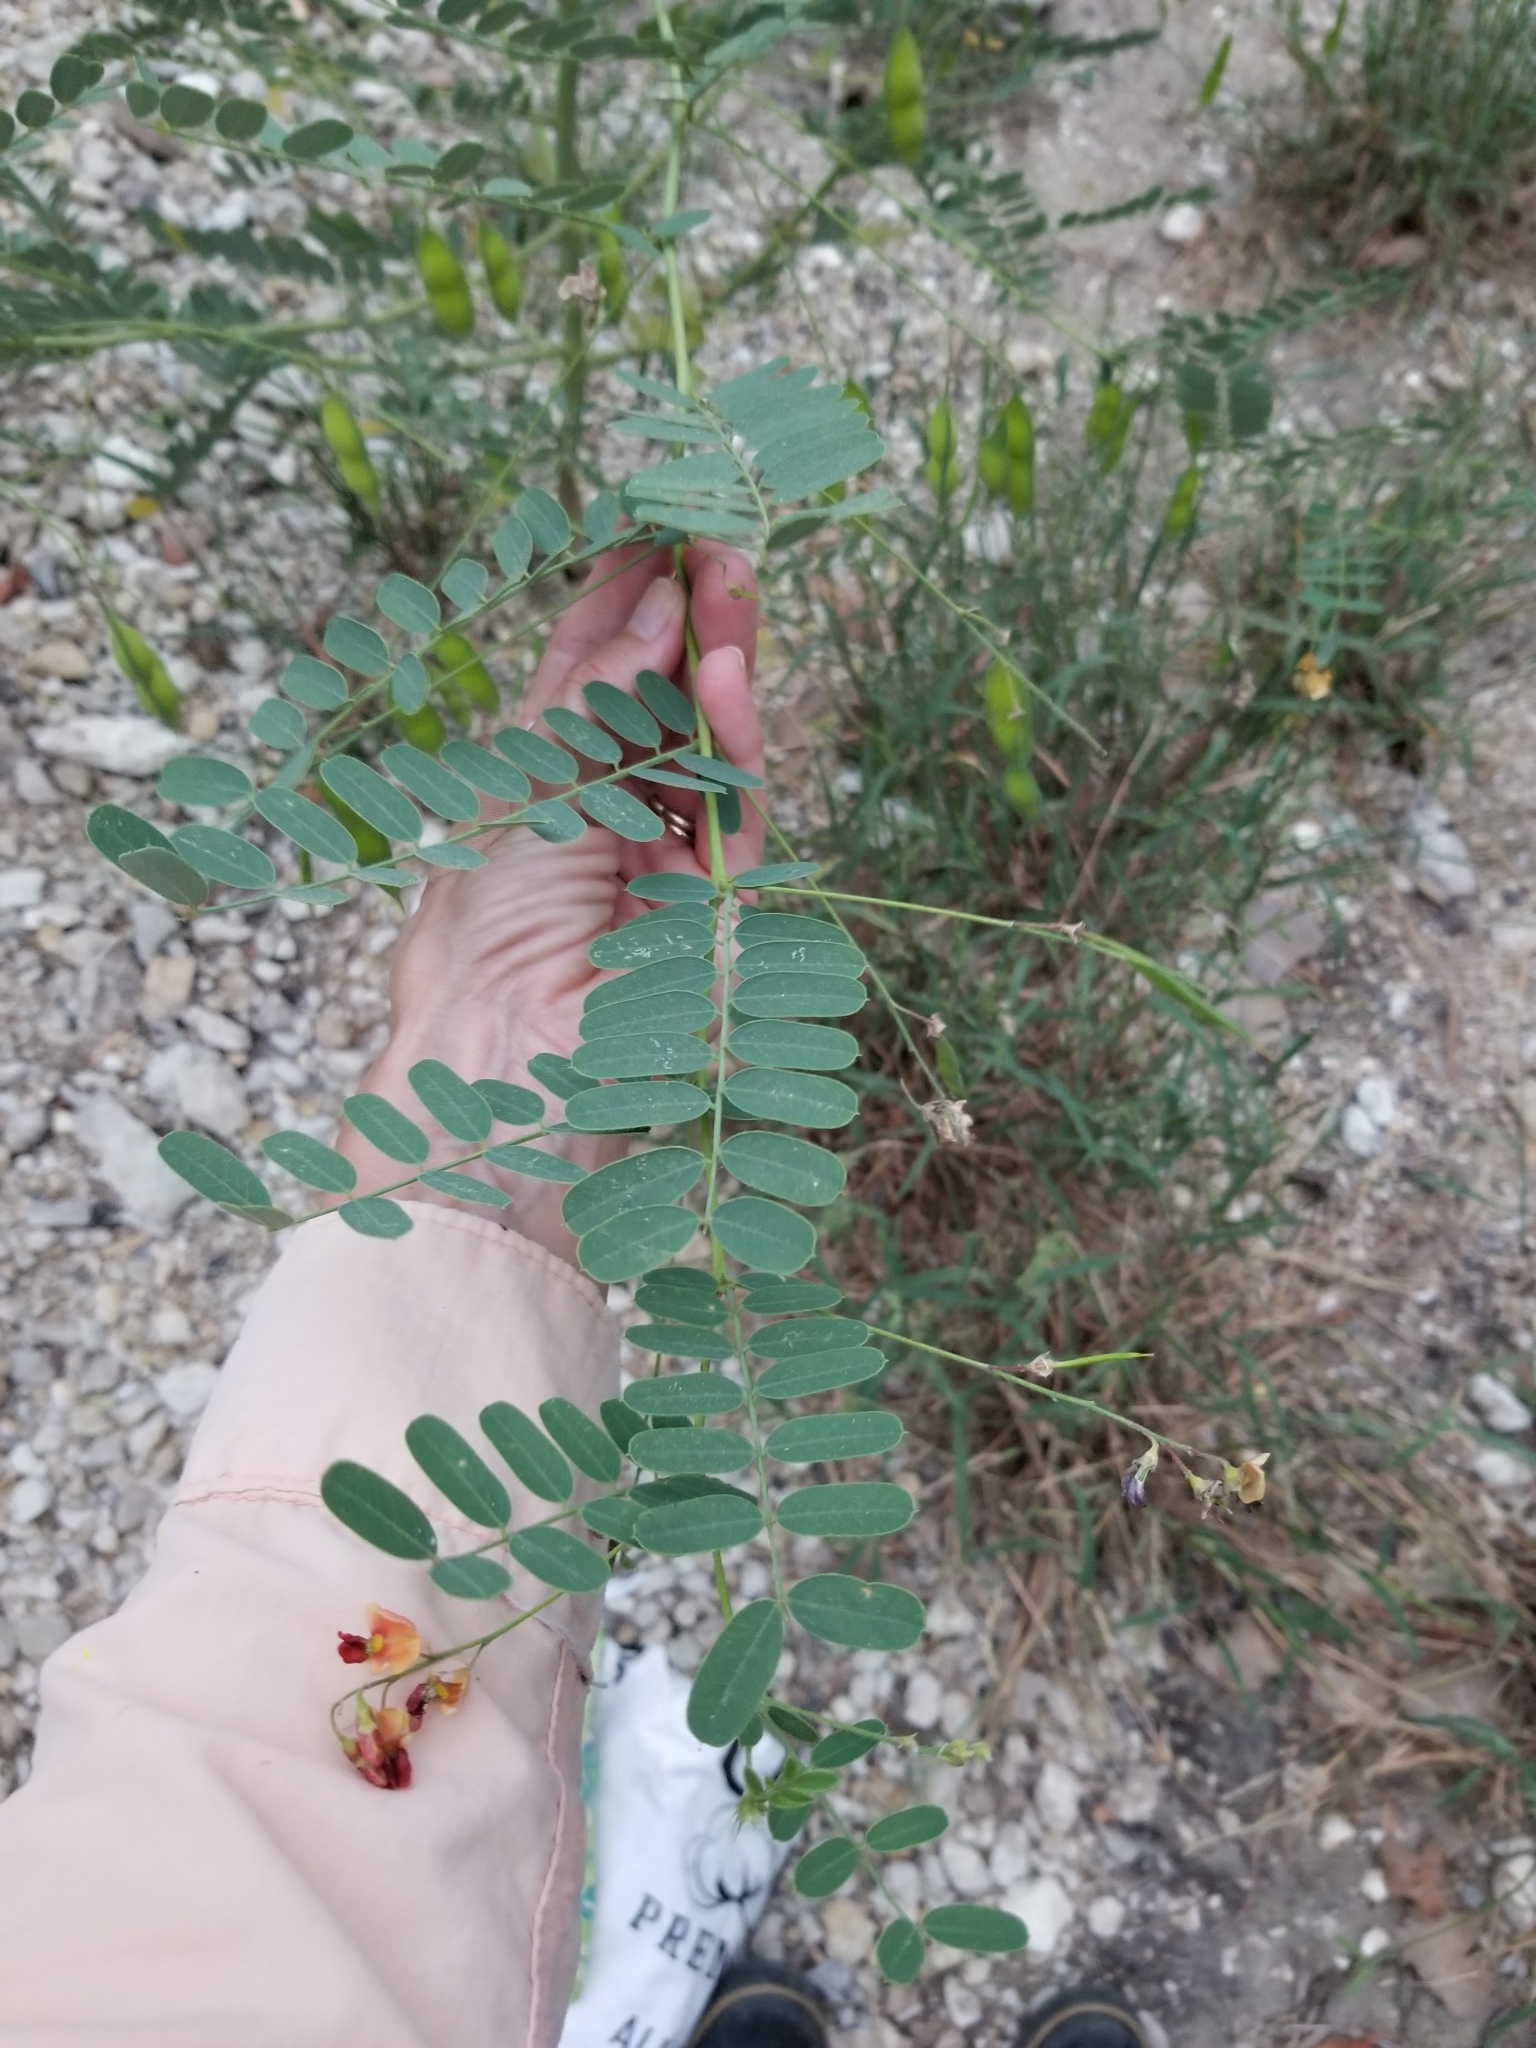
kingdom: Plantae
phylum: Tracheophyta
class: Magnoliopsida
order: Fabales
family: Fabaceae
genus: Sesbania
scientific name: Sesbania vesicaria
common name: Bagpod
